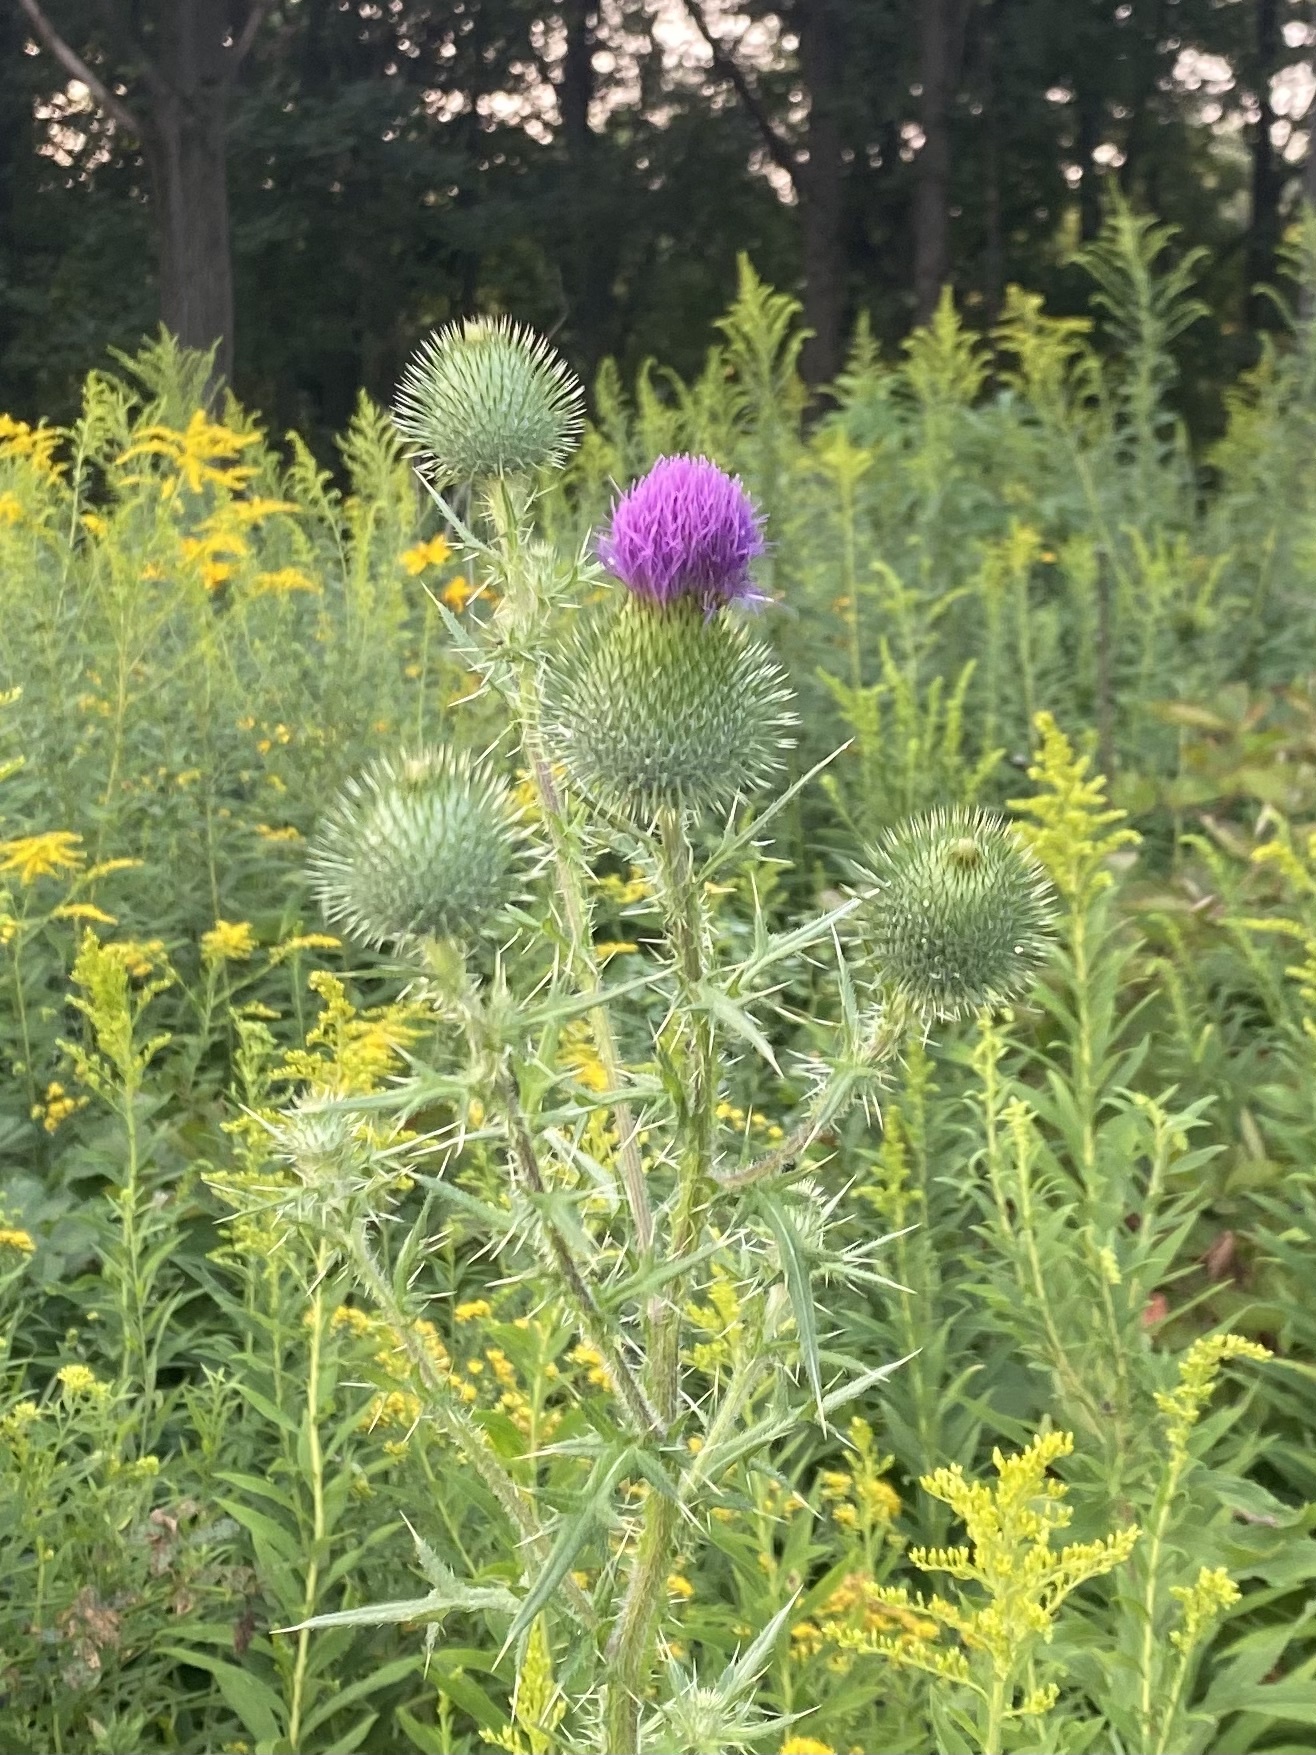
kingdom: Plantae
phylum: Tracheophyta
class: Magnoliopsida
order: Asterales
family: Asteraceae
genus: Cirsium
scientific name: Cirsium vulgare
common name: Bull thistle
